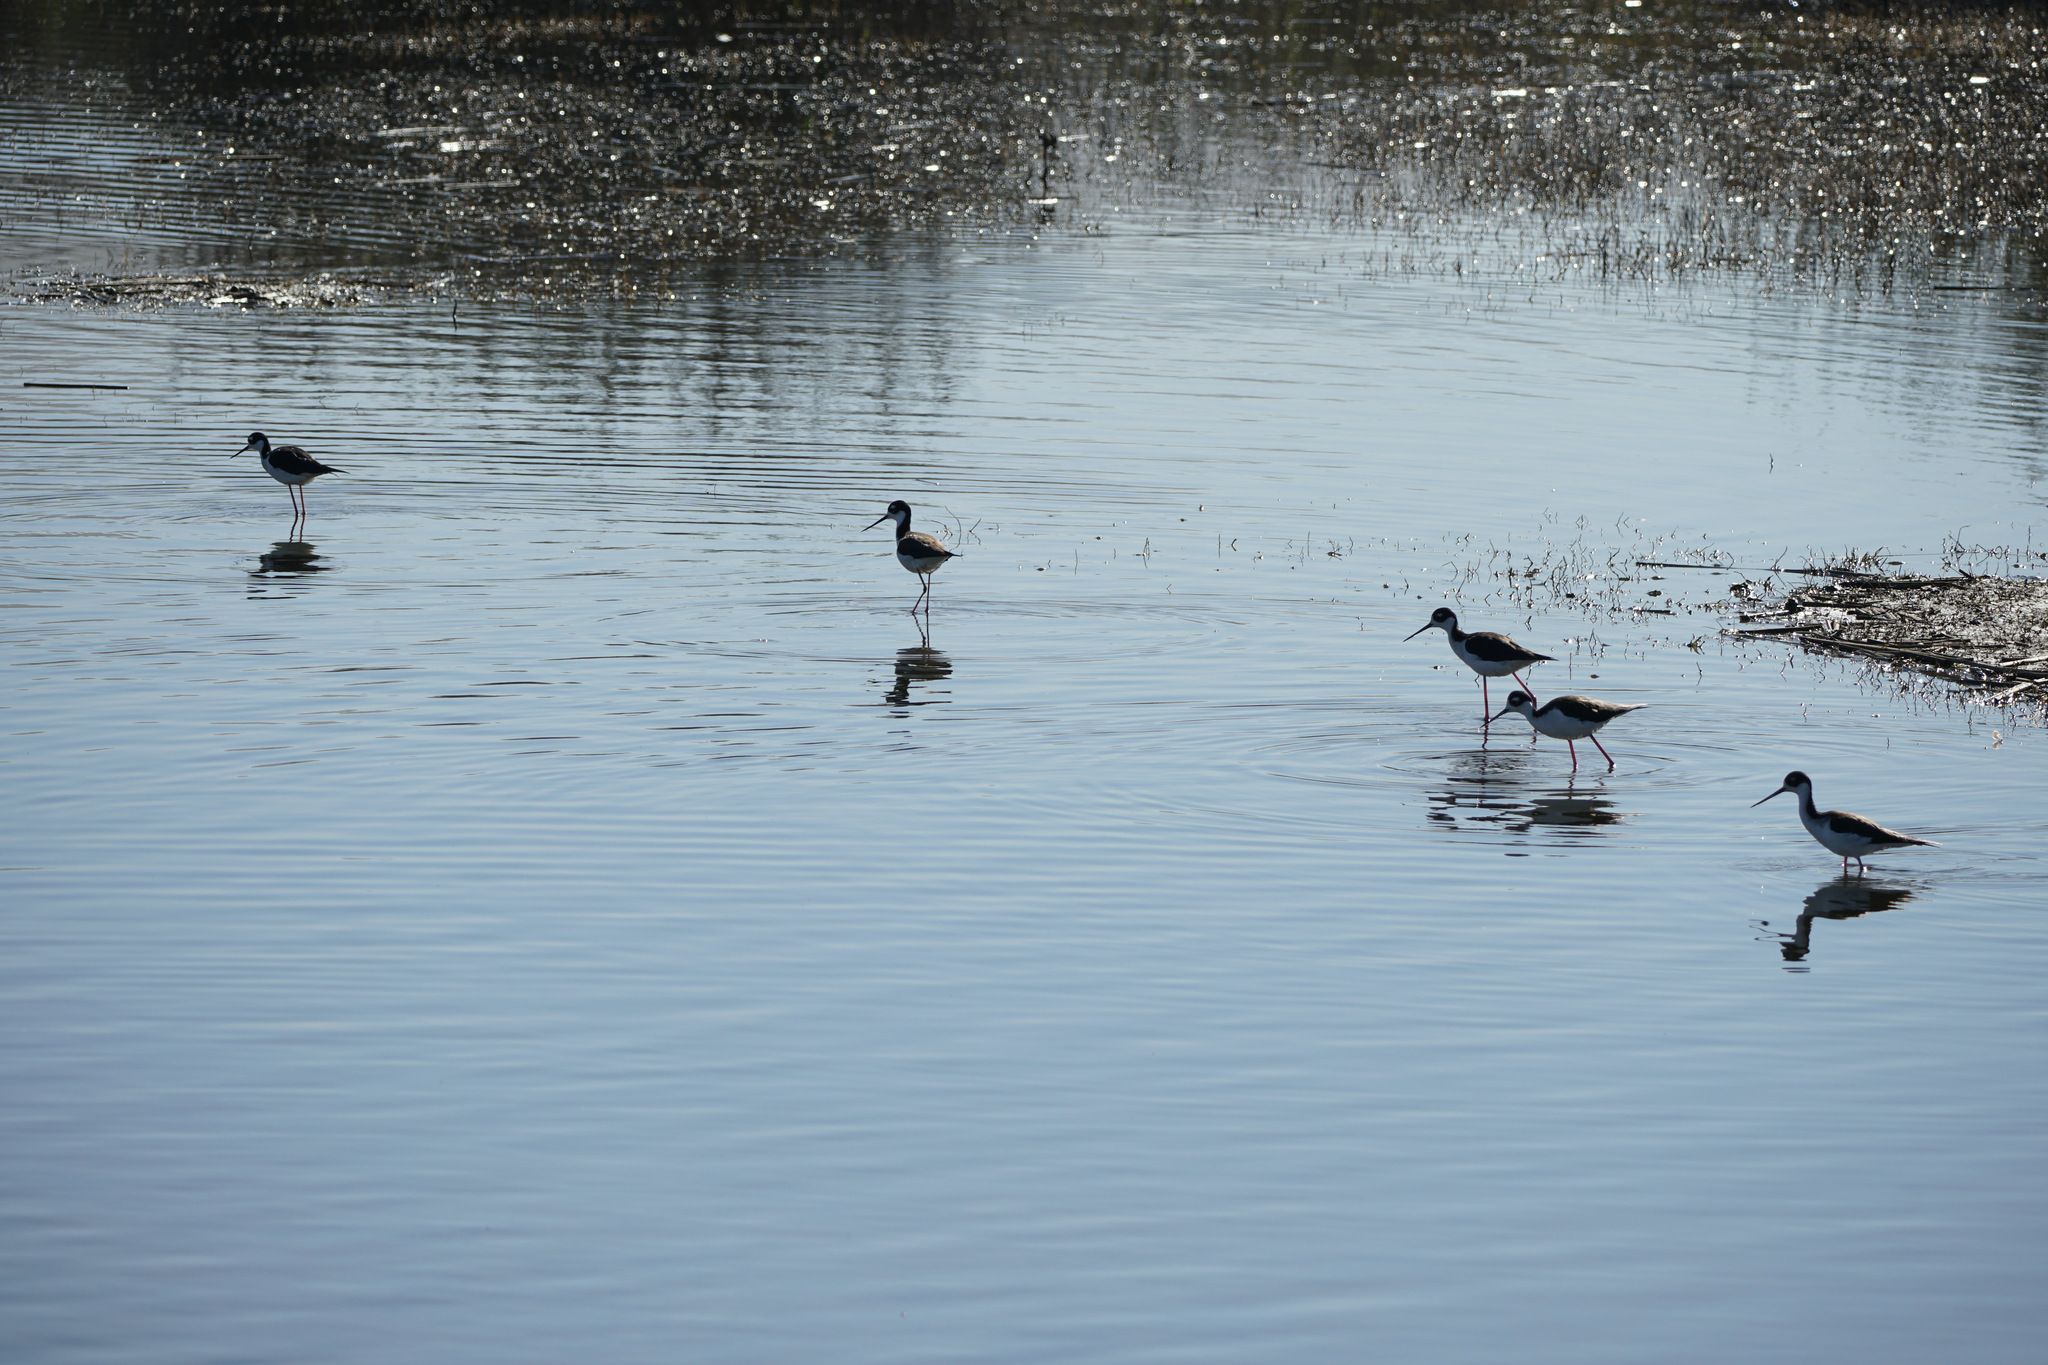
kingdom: Animalia
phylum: Chordata
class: Aves
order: Charadriiformes
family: Recurvirostridae
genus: Himantopus
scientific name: Himantopus mexicanus
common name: Black-necked stilt
